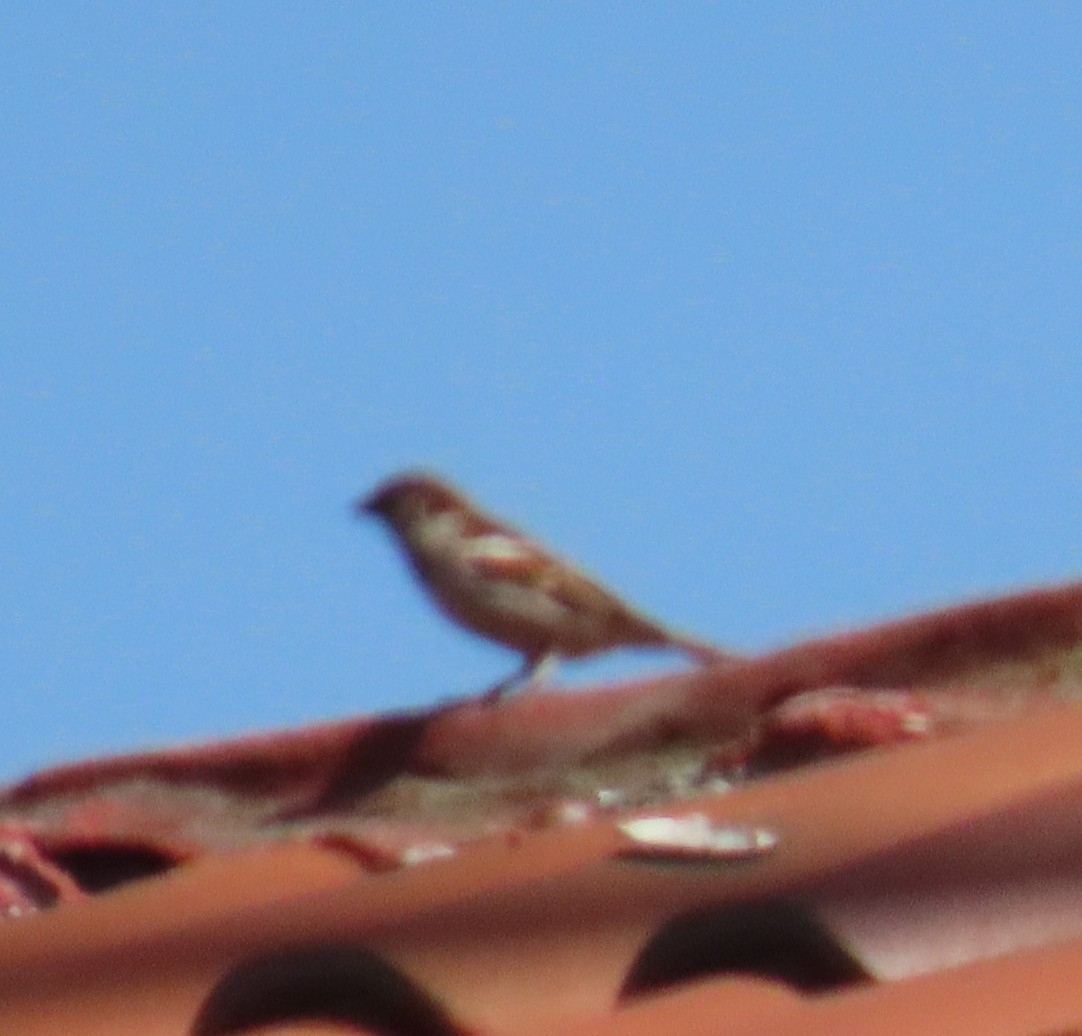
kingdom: Animalia
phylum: Chordata
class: Aves
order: Passeriformes
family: Passeridae
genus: Passer
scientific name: Passer domesticus
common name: House sparrow
